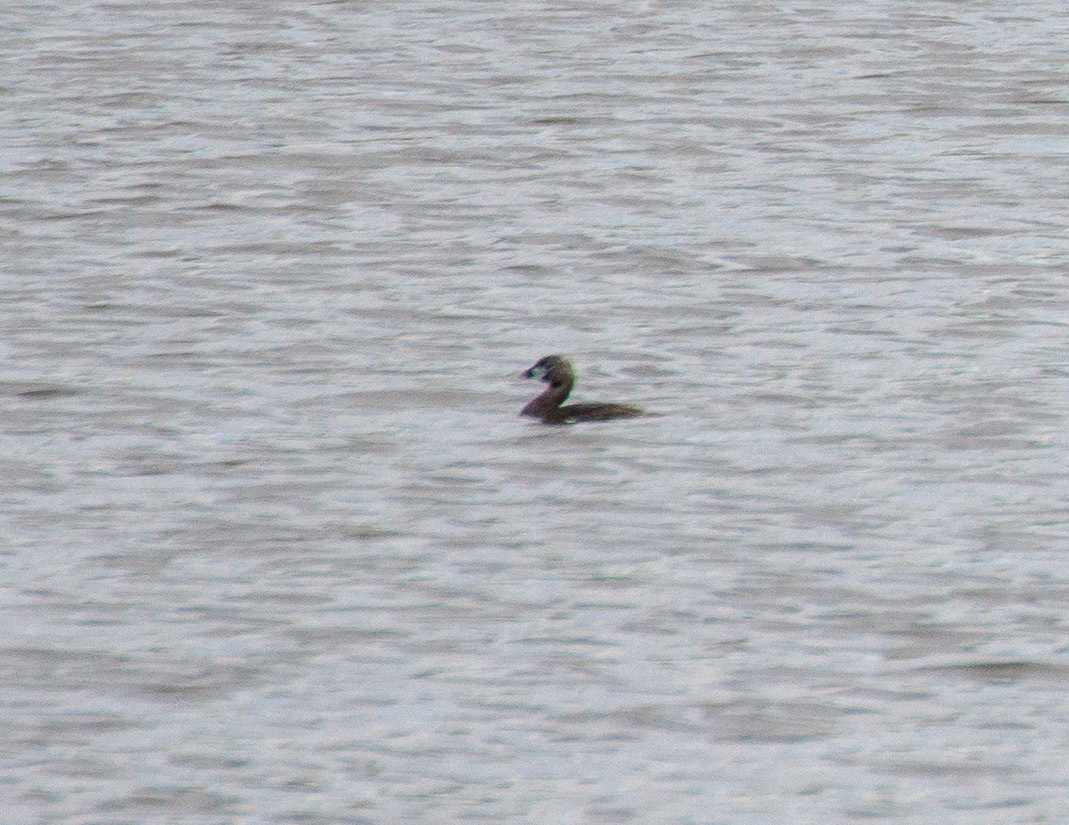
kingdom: Animalia
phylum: Chordata
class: Aves
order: Podicipediformes
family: Podicipedidae
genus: Podilymbus
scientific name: Podilymbus podiceps
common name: Pied-billed grebe
